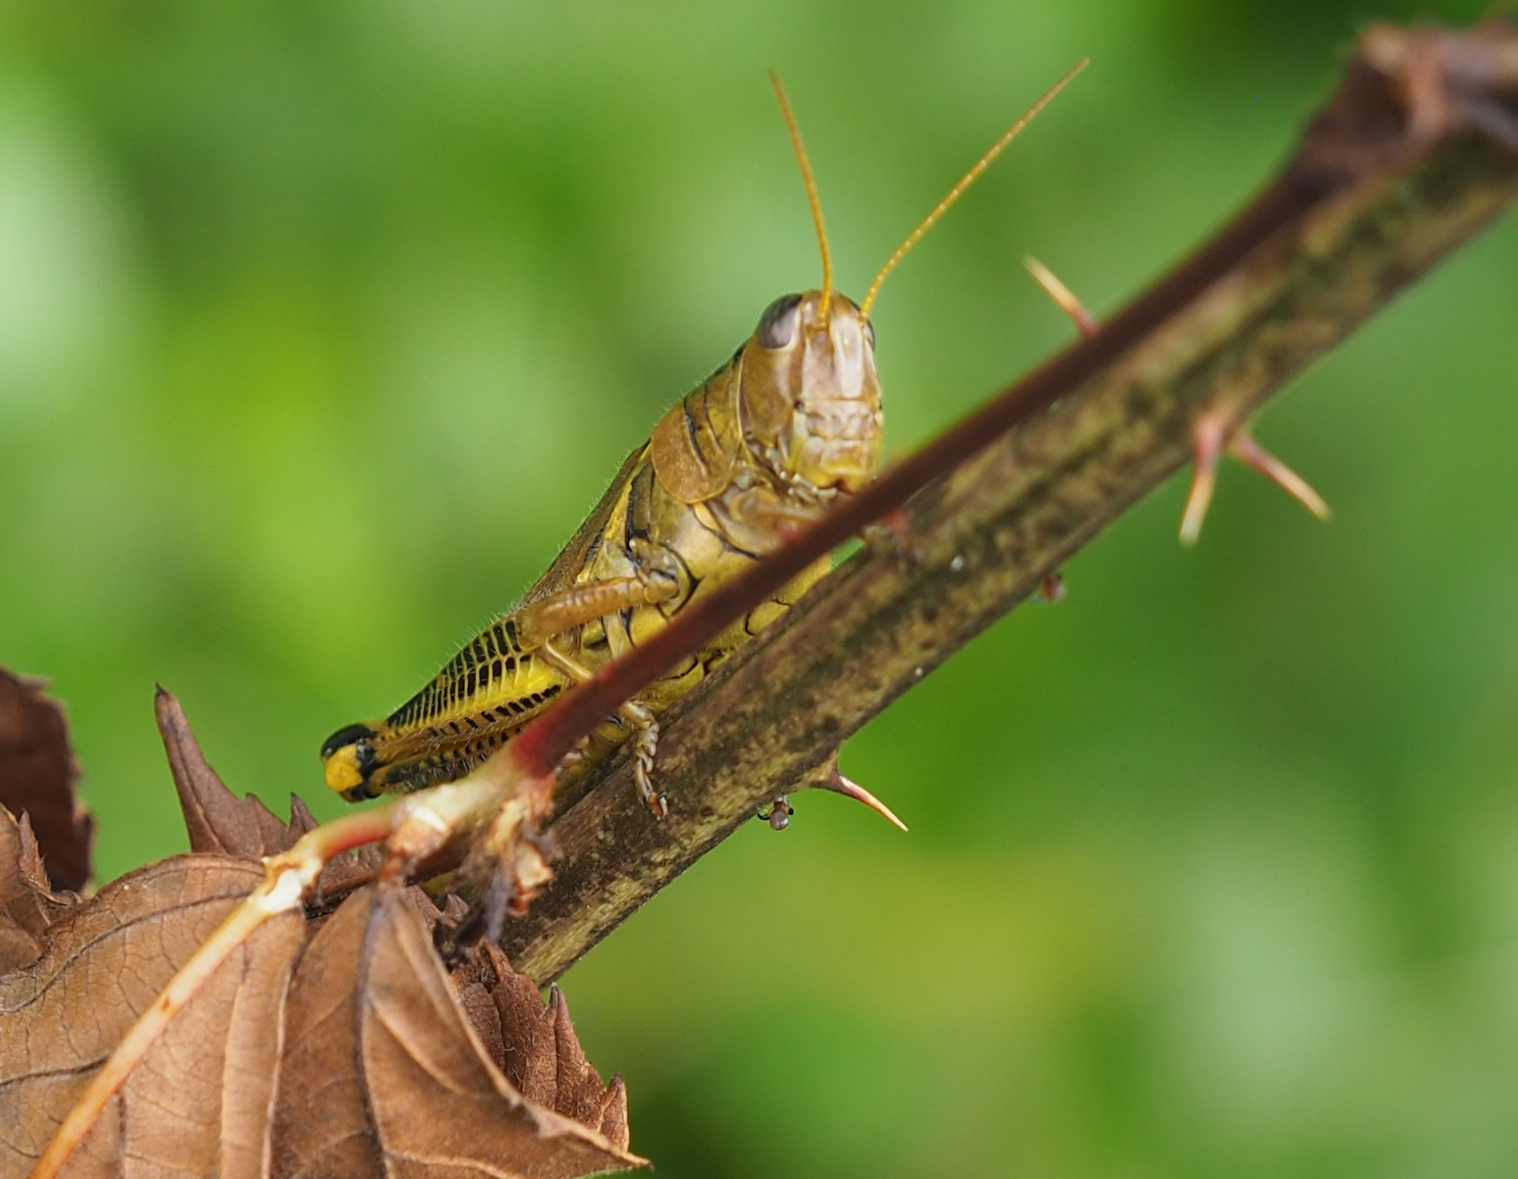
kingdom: Animalia
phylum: Arthropoda
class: Insecta
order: Orthoptera
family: Acrididae
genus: Melanoplus
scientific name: Melanoplus differentialis
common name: Differential grasshopper
